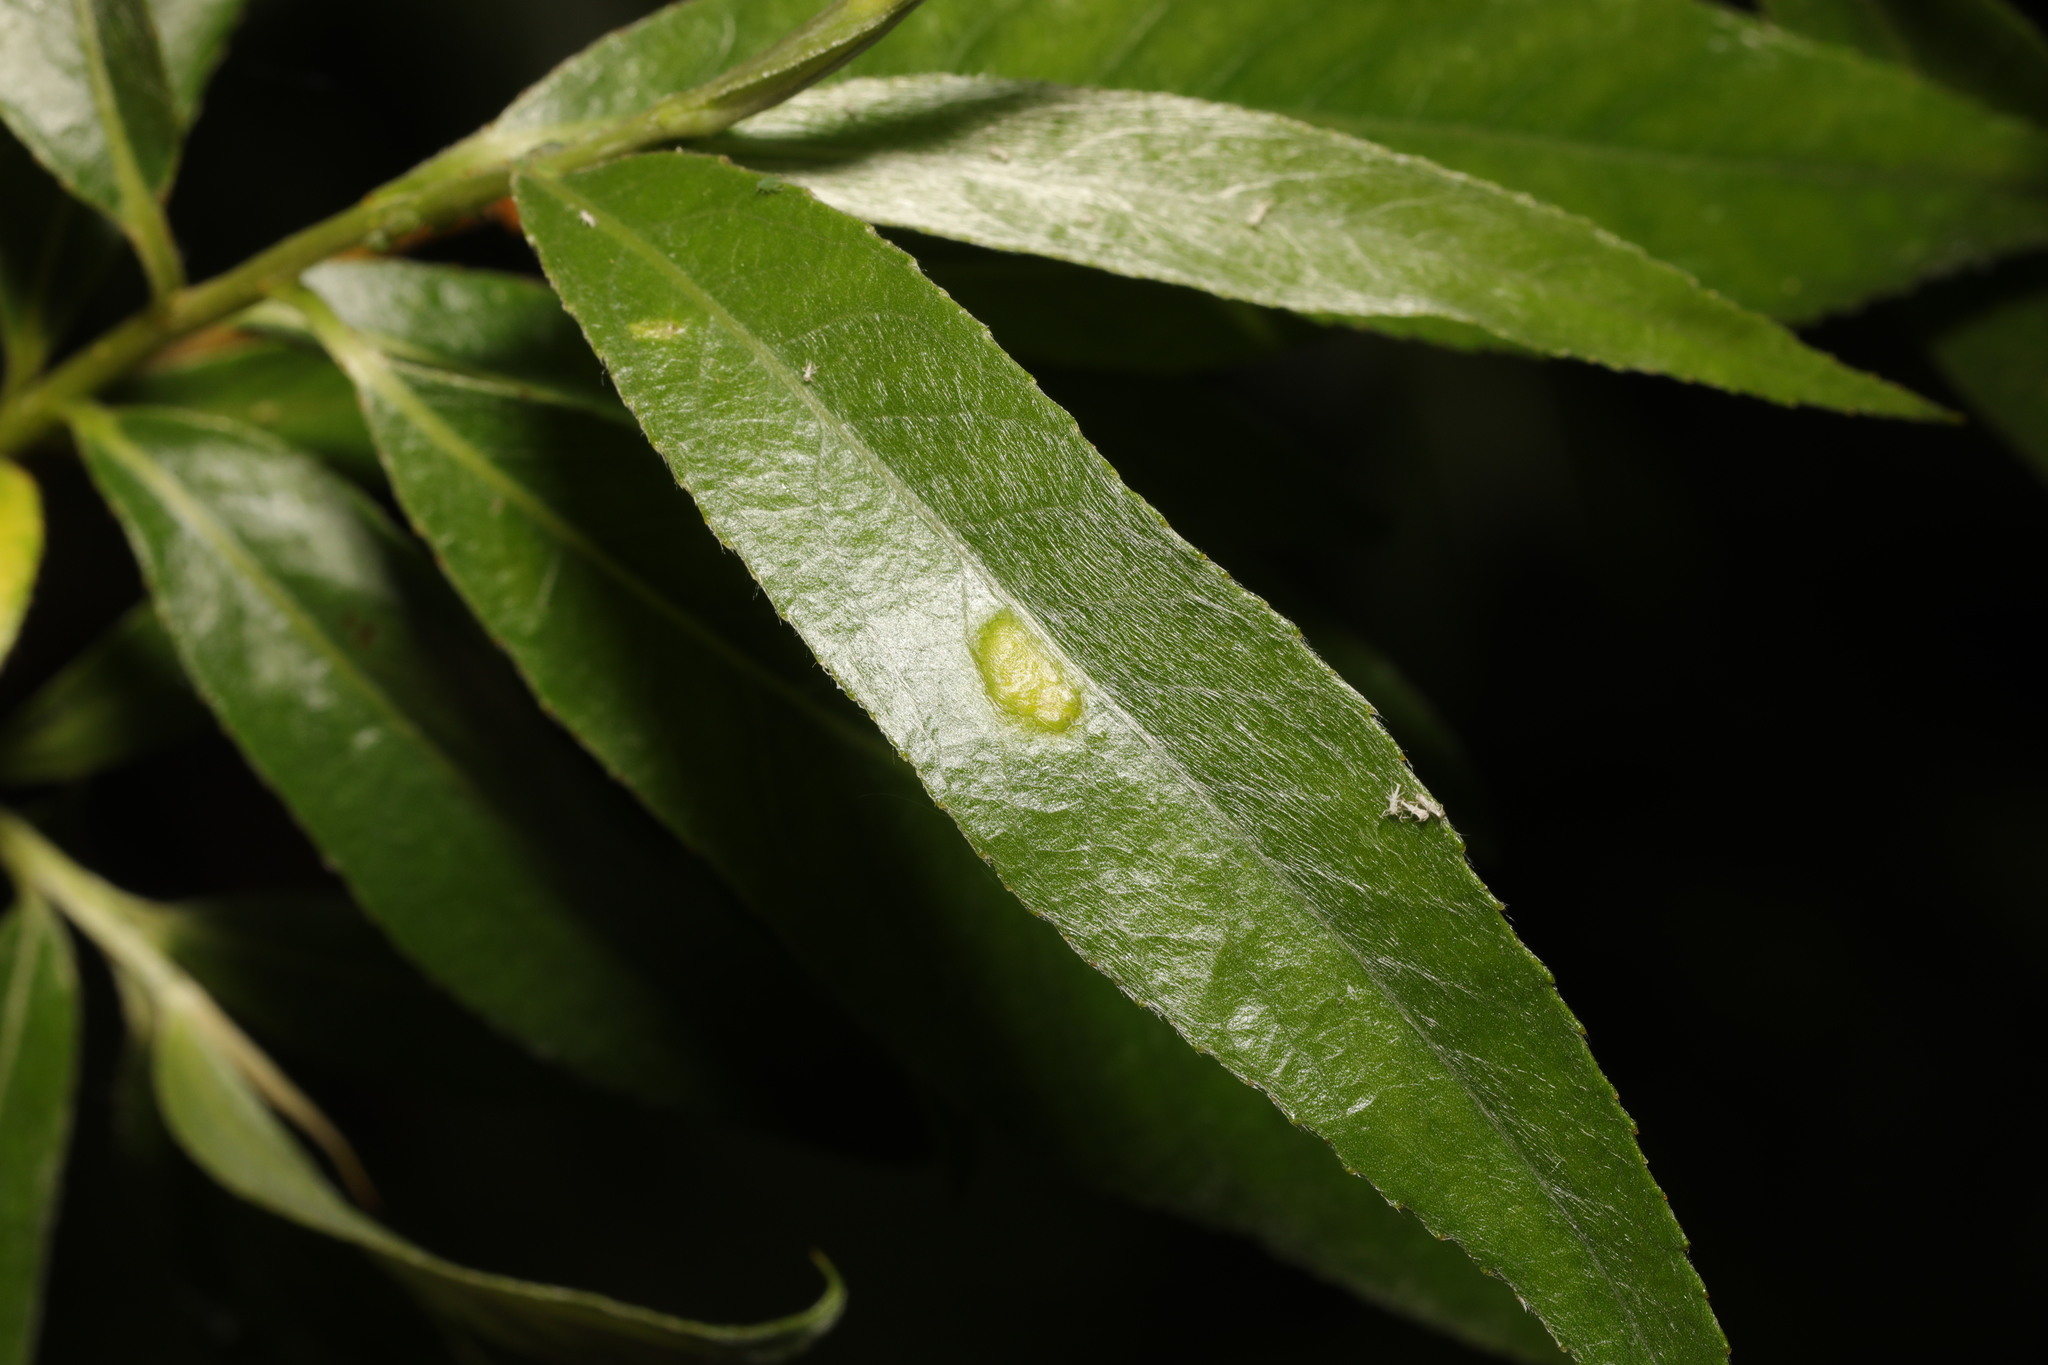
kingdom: Animalia
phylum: Arthropoda
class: Insecta
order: Hymenoptera
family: Tenthredinidae
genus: Pontania
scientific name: Pontania proxima
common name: Common sawfly
